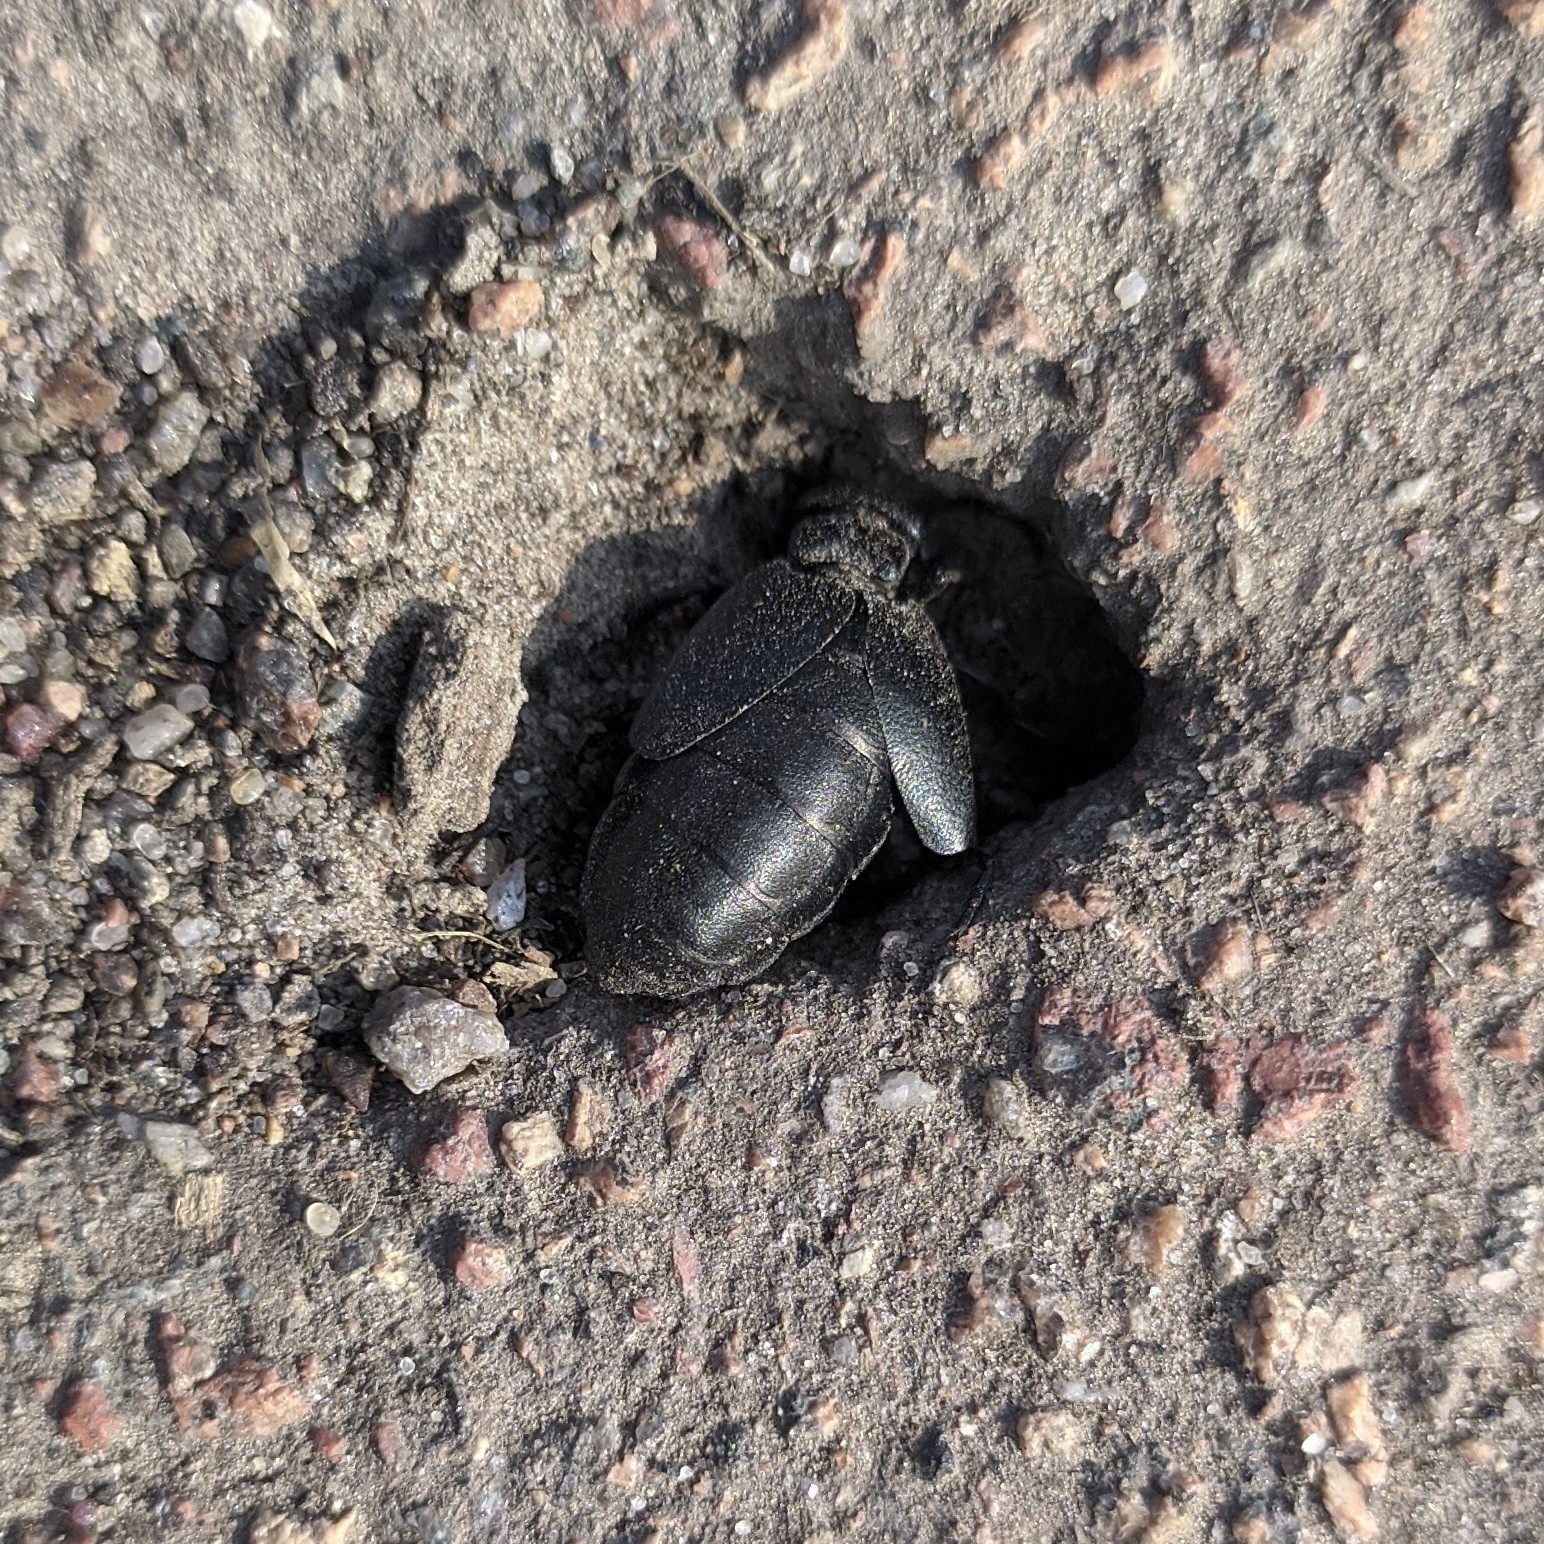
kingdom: Animalia
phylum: Arthropoda
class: Insecta
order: Coleoptera
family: Meloidae
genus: Meloe
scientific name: Meloe decorus
